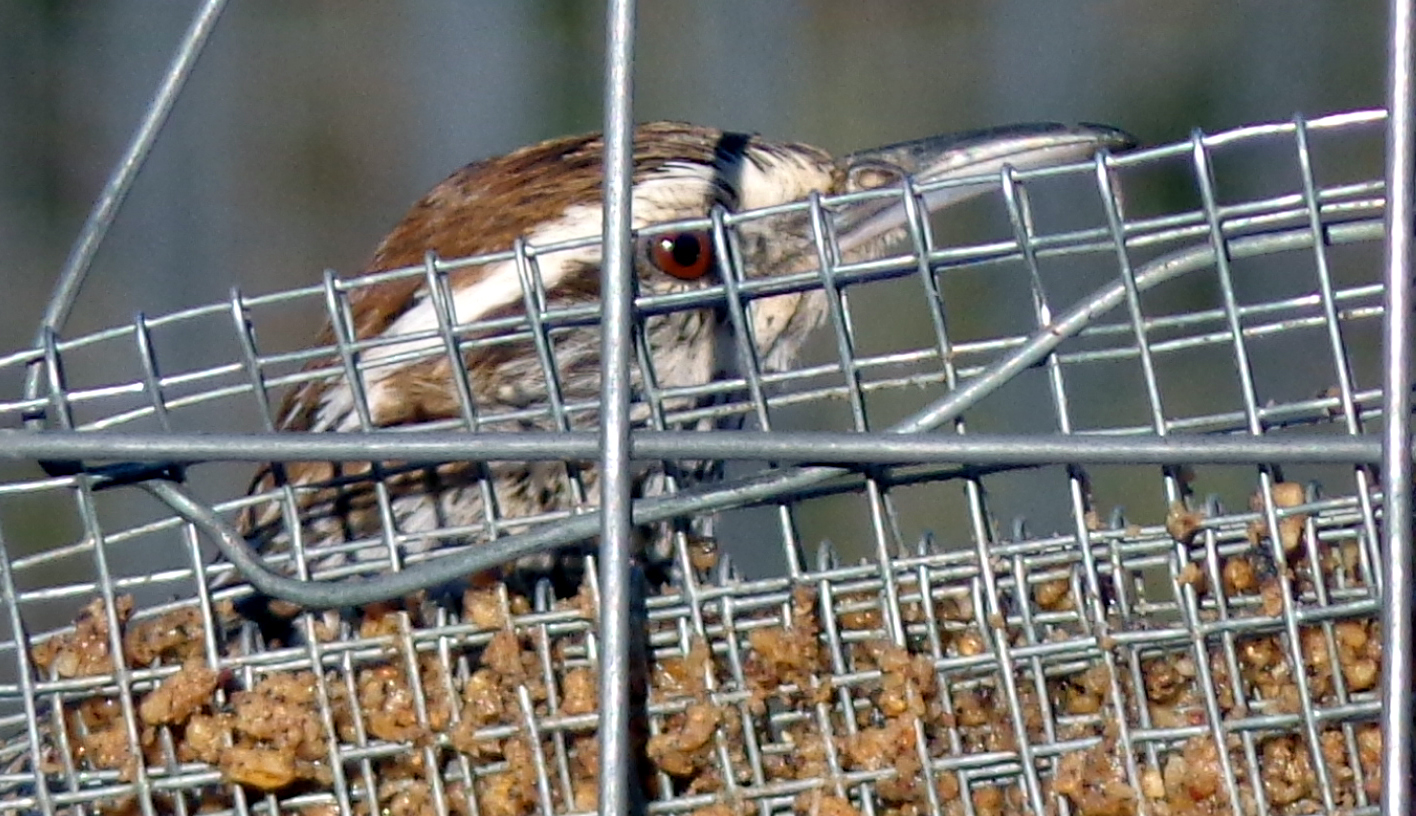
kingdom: Animalia
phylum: Chordata
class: Aves
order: Passeriformes
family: Troglodytidae
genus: Campylorhynchus
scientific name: Campylorhynchus brunneicapillus
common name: Cactus wren
